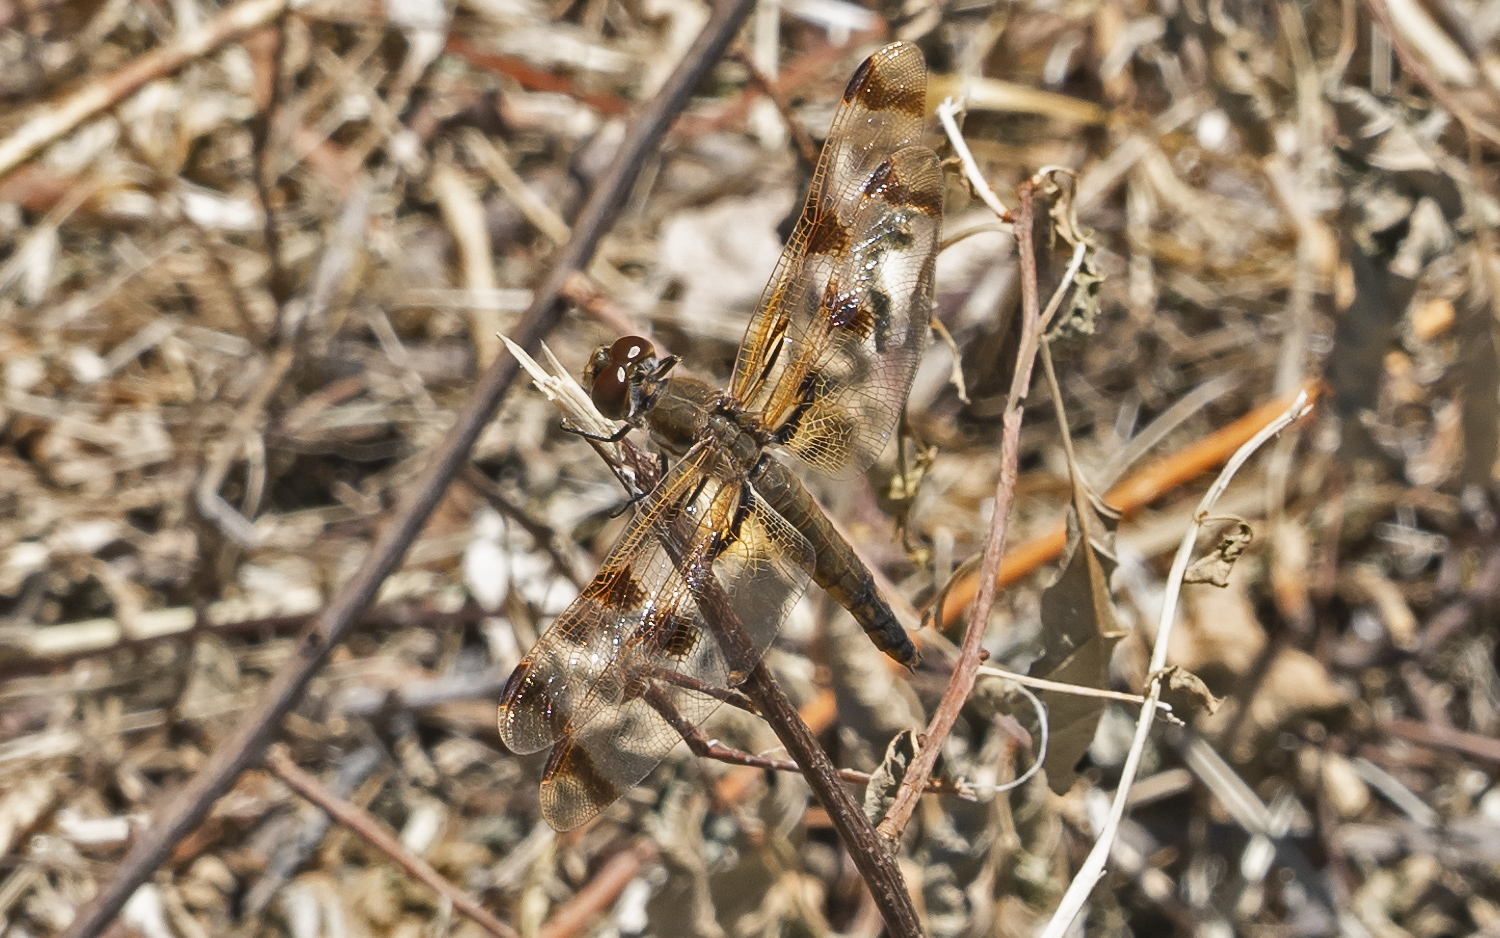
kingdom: Animalia
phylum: Arthropoda
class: Insecta
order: Odonata
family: Libellulidae
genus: Libellula
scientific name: Libellula semifasciata
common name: Painted skimmer
